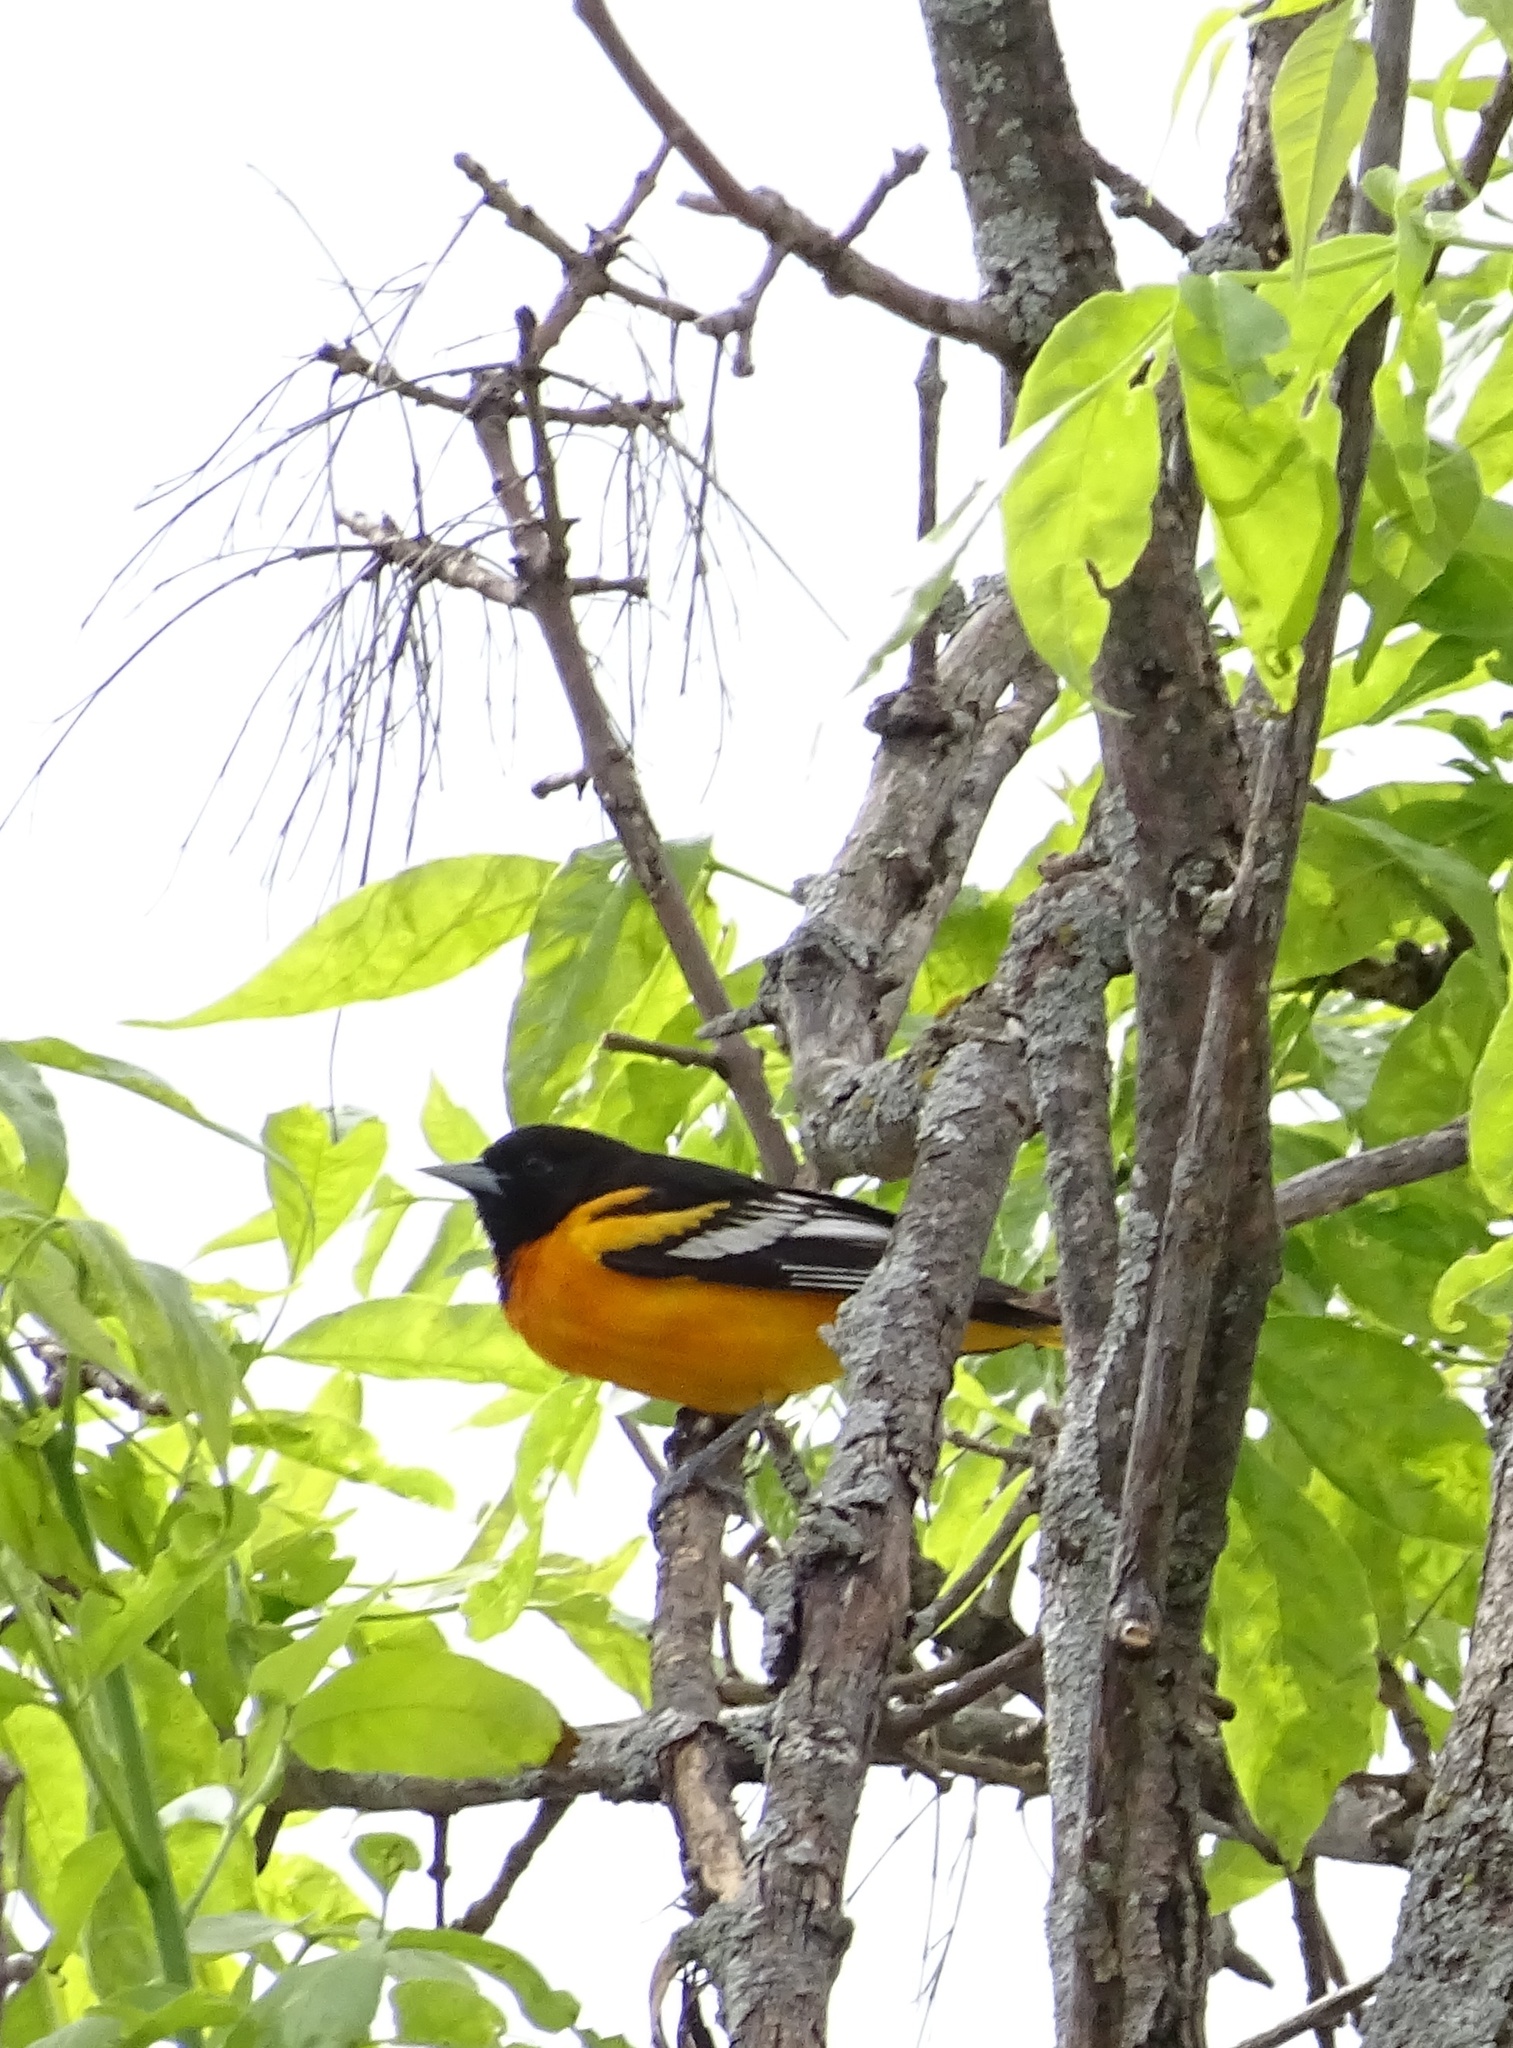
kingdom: Animalia
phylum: Chordata
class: Aves
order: Passeriformes
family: Icteridae
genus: Icterus
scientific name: Icterus galbula
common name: Baltimore oriole
